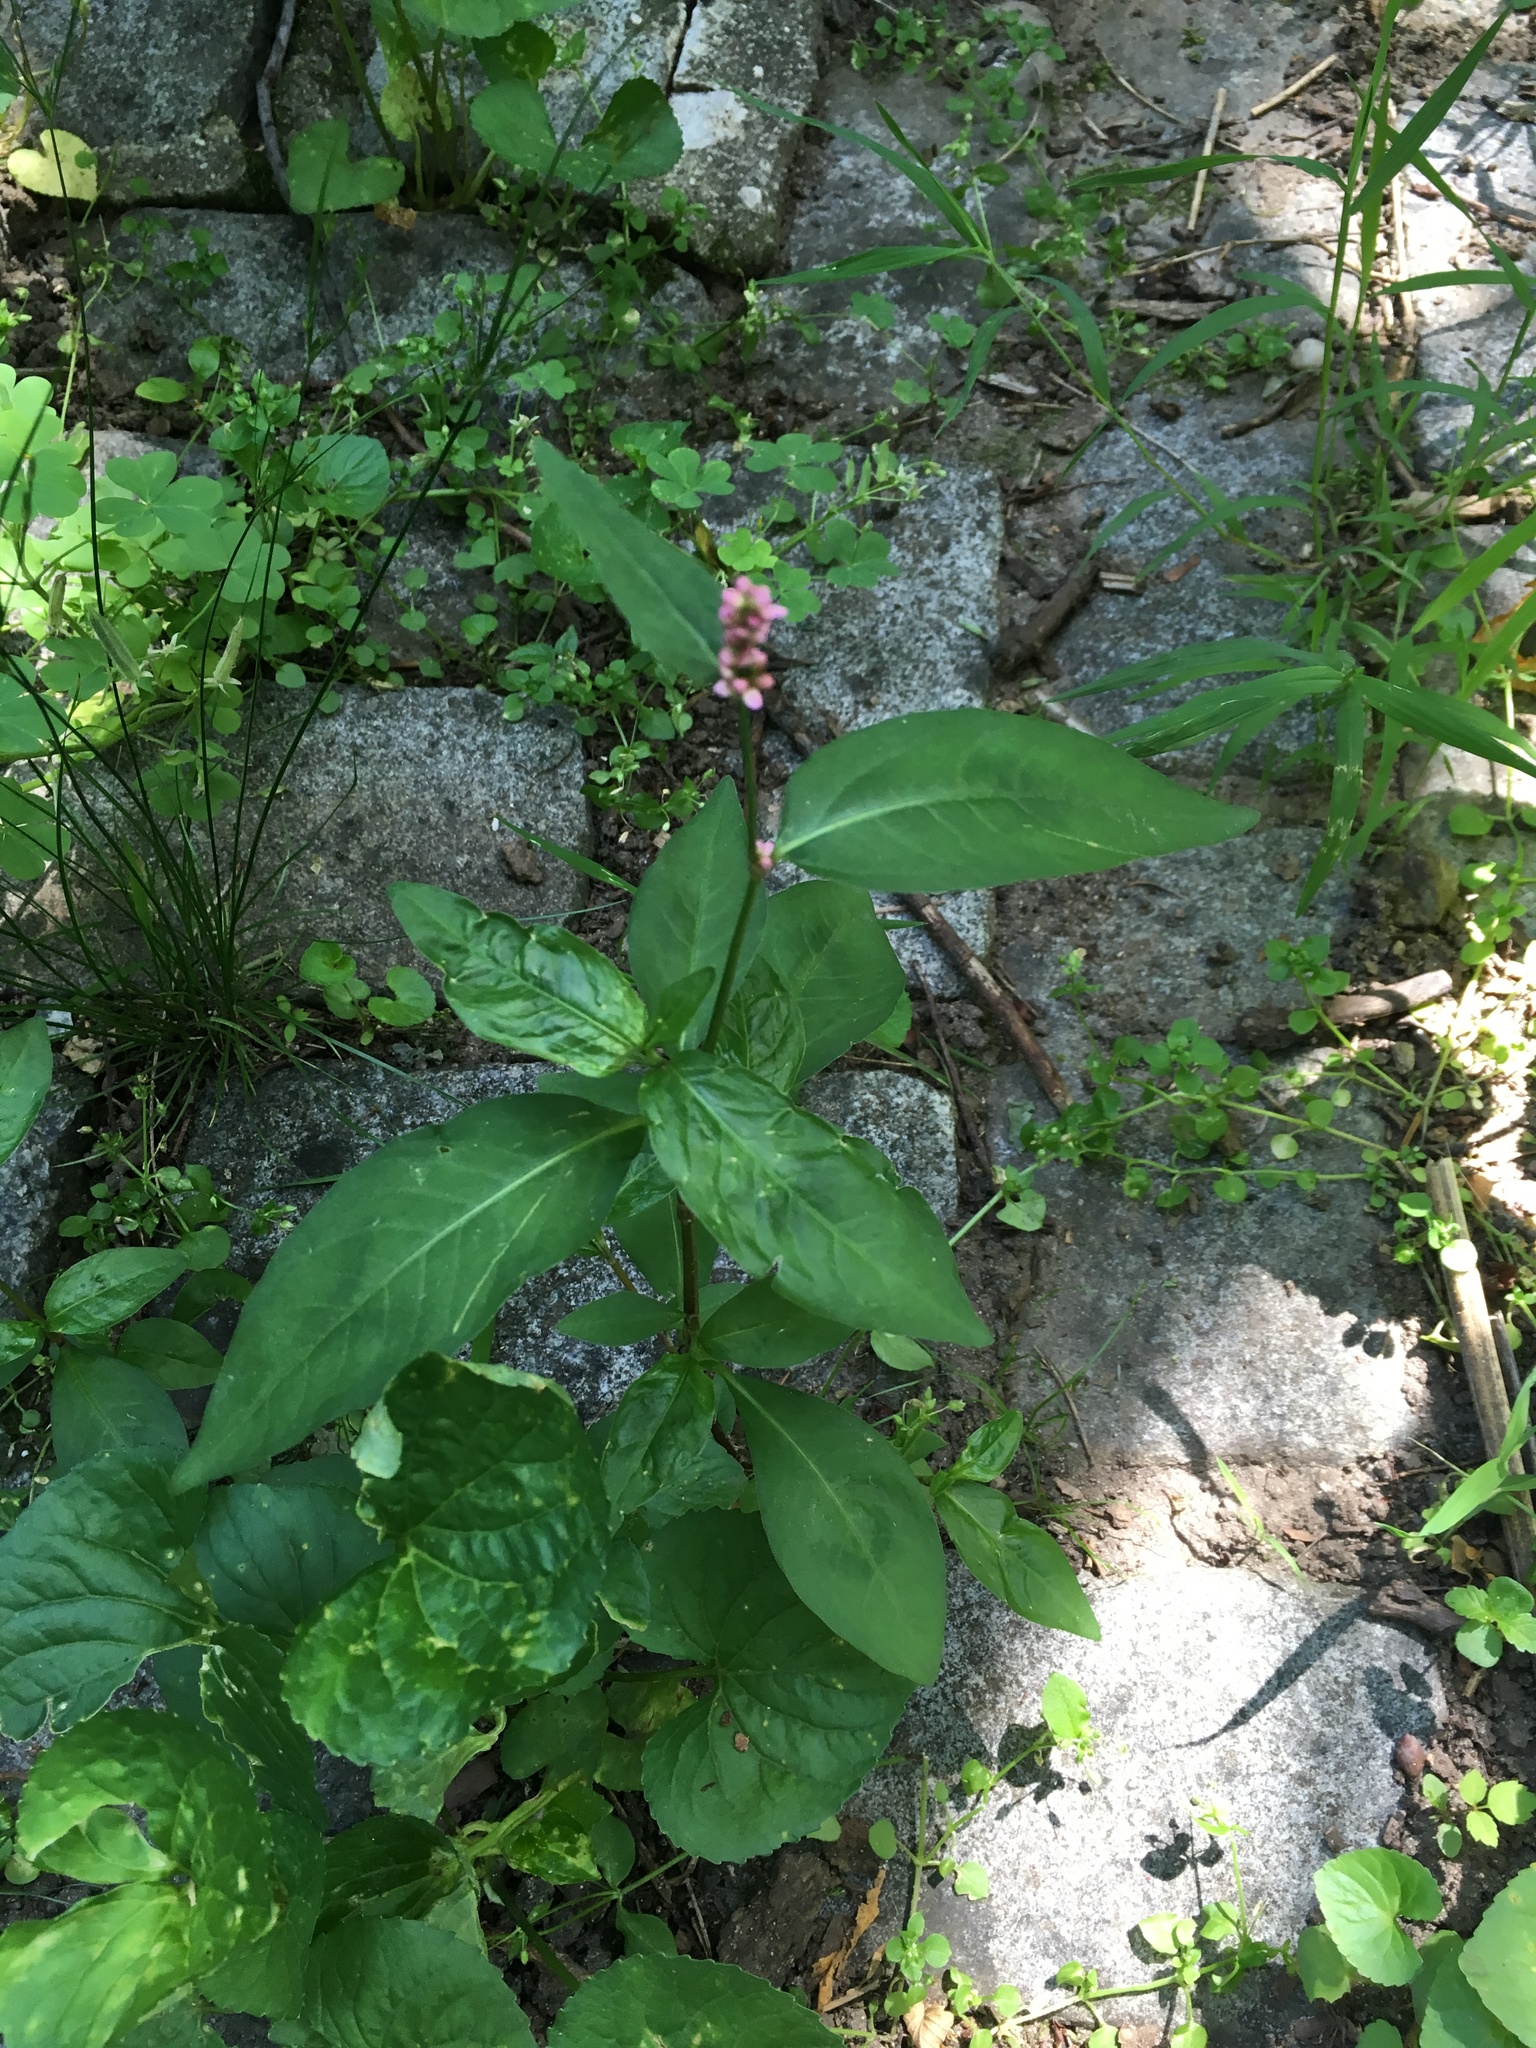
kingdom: Plantae
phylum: Tracheophyta
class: Magnoliopsida
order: Caryophyllales
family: Polygonaceae
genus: Persicaria
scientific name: Persicaria longiseta
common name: Bristly lady's-thumb
